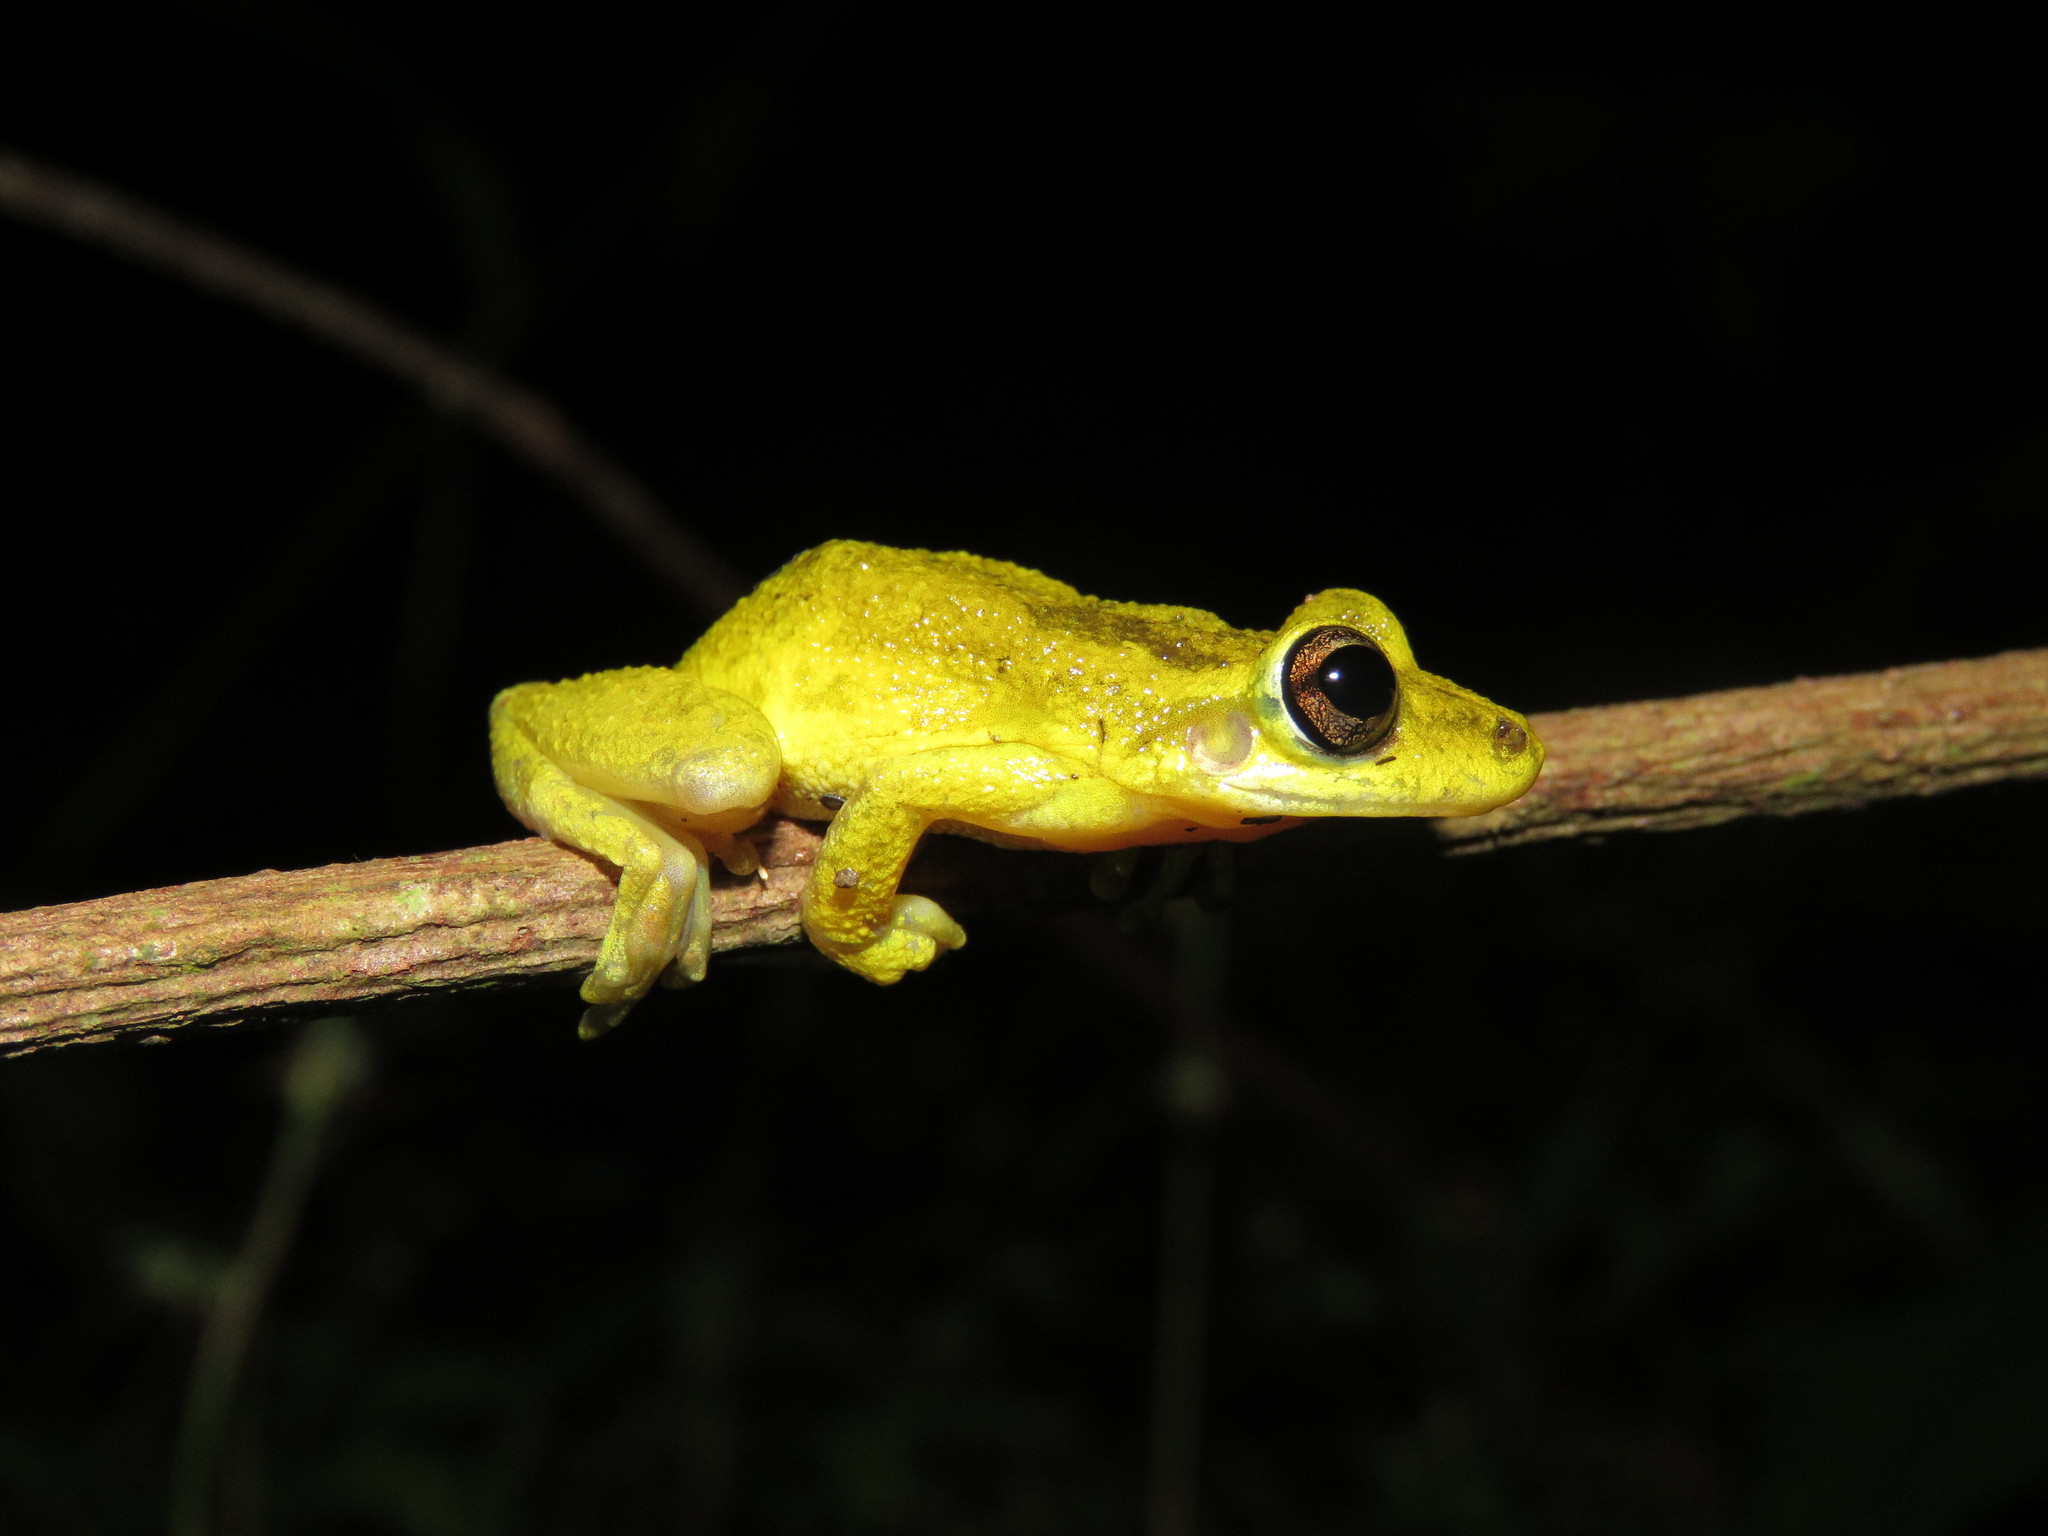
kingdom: Animalia
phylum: Chordata
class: Amphibia
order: Anura
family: Hylidae
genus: Scinax
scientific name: Scinax ruber
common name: Red snouted treefrog
